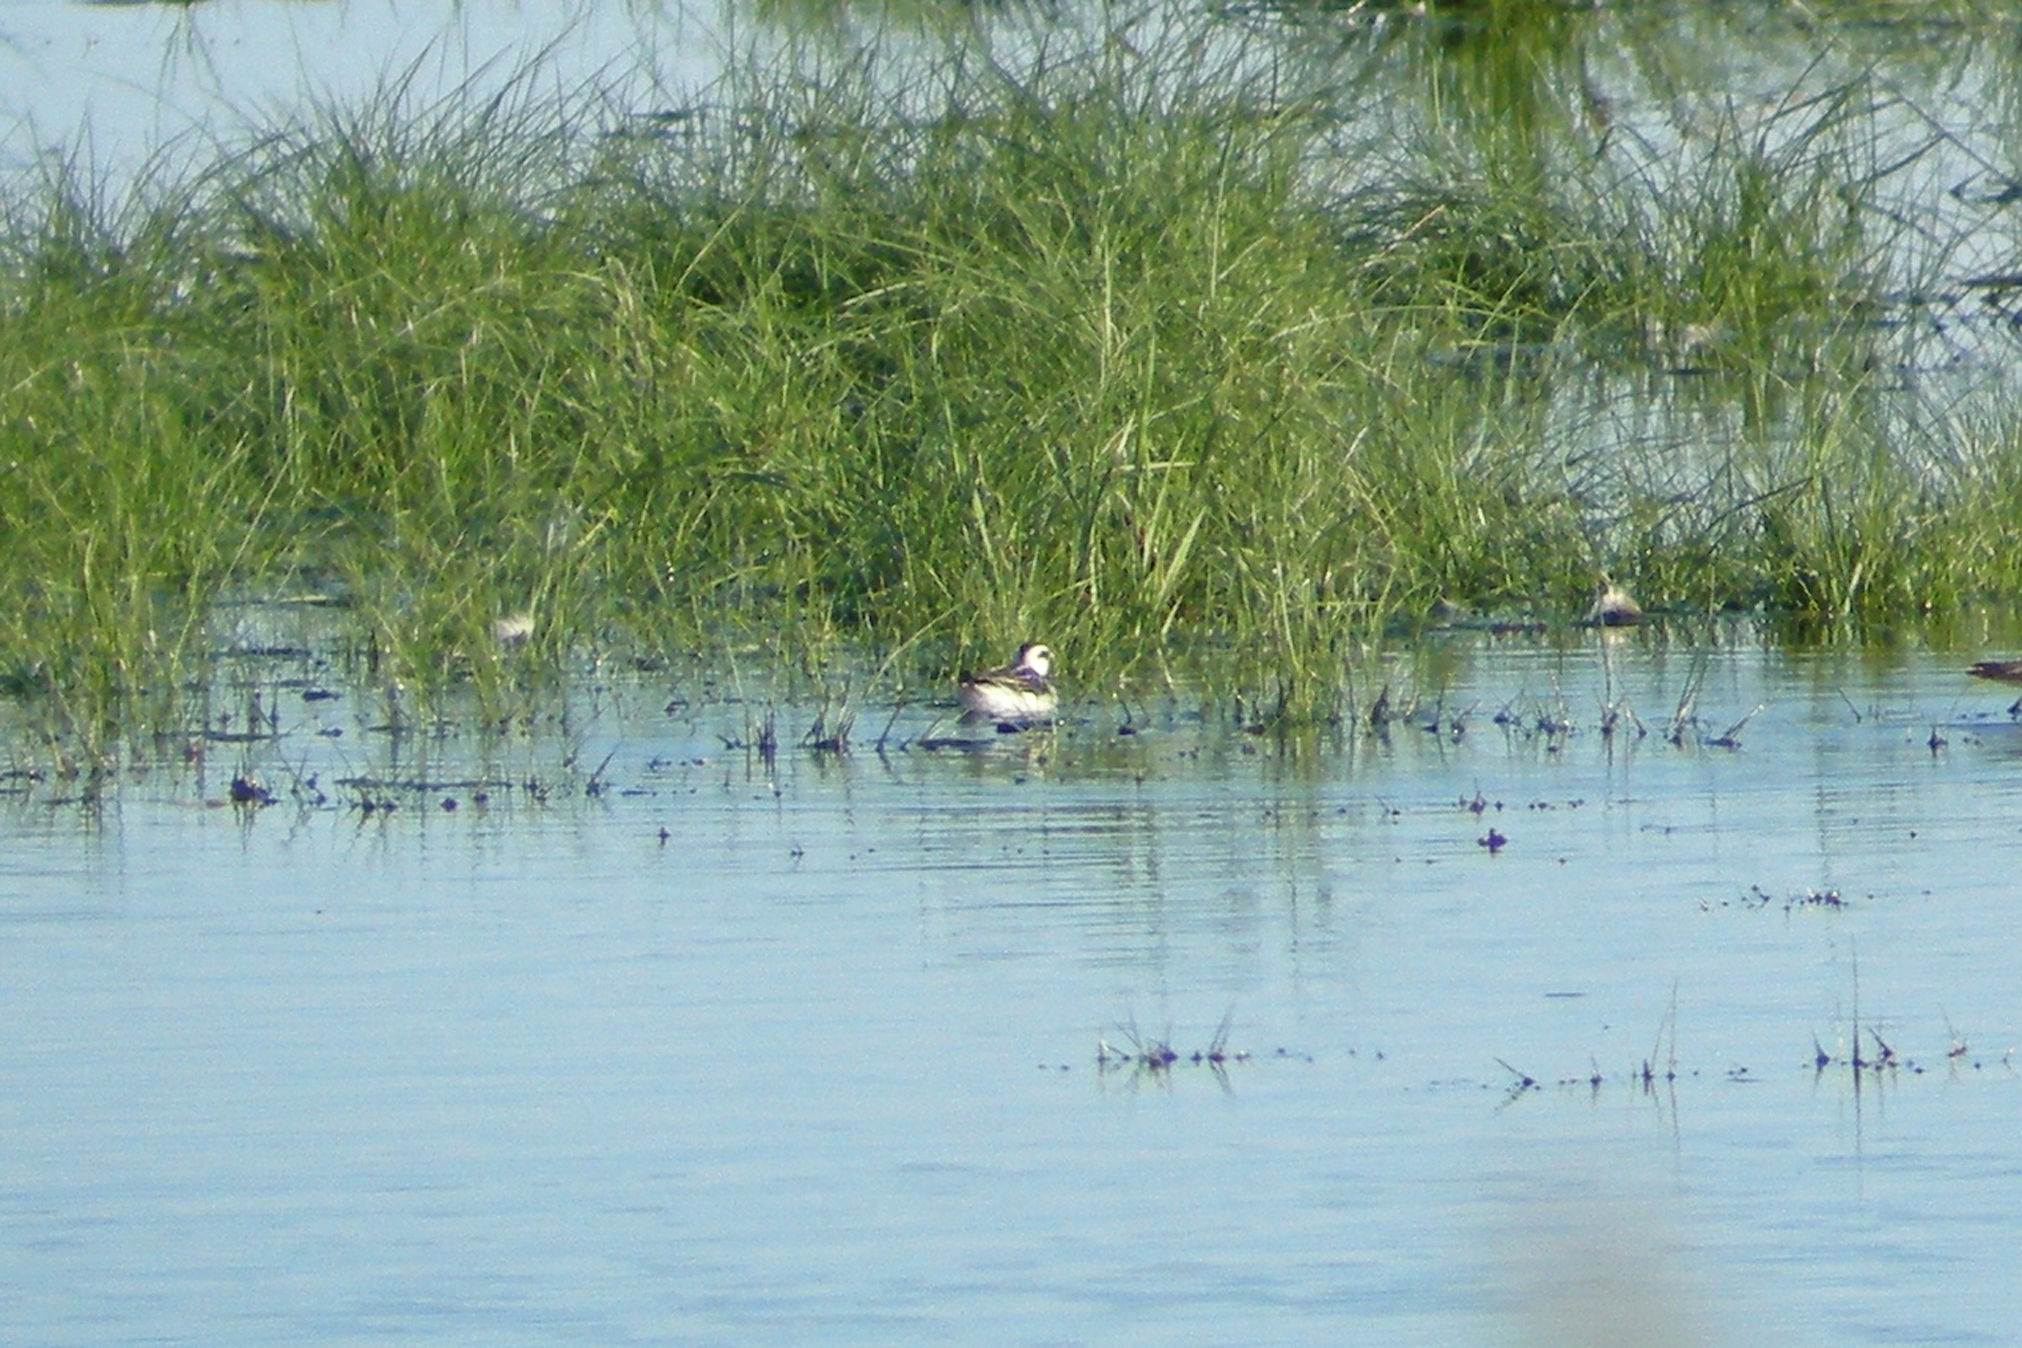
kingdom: Animalia
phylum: Chordata
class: Aves
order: Charadriiformes
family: Scolopacidae
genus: Phalaropus
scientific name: Phalaropus lobatus
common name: Red-necked phalarope
